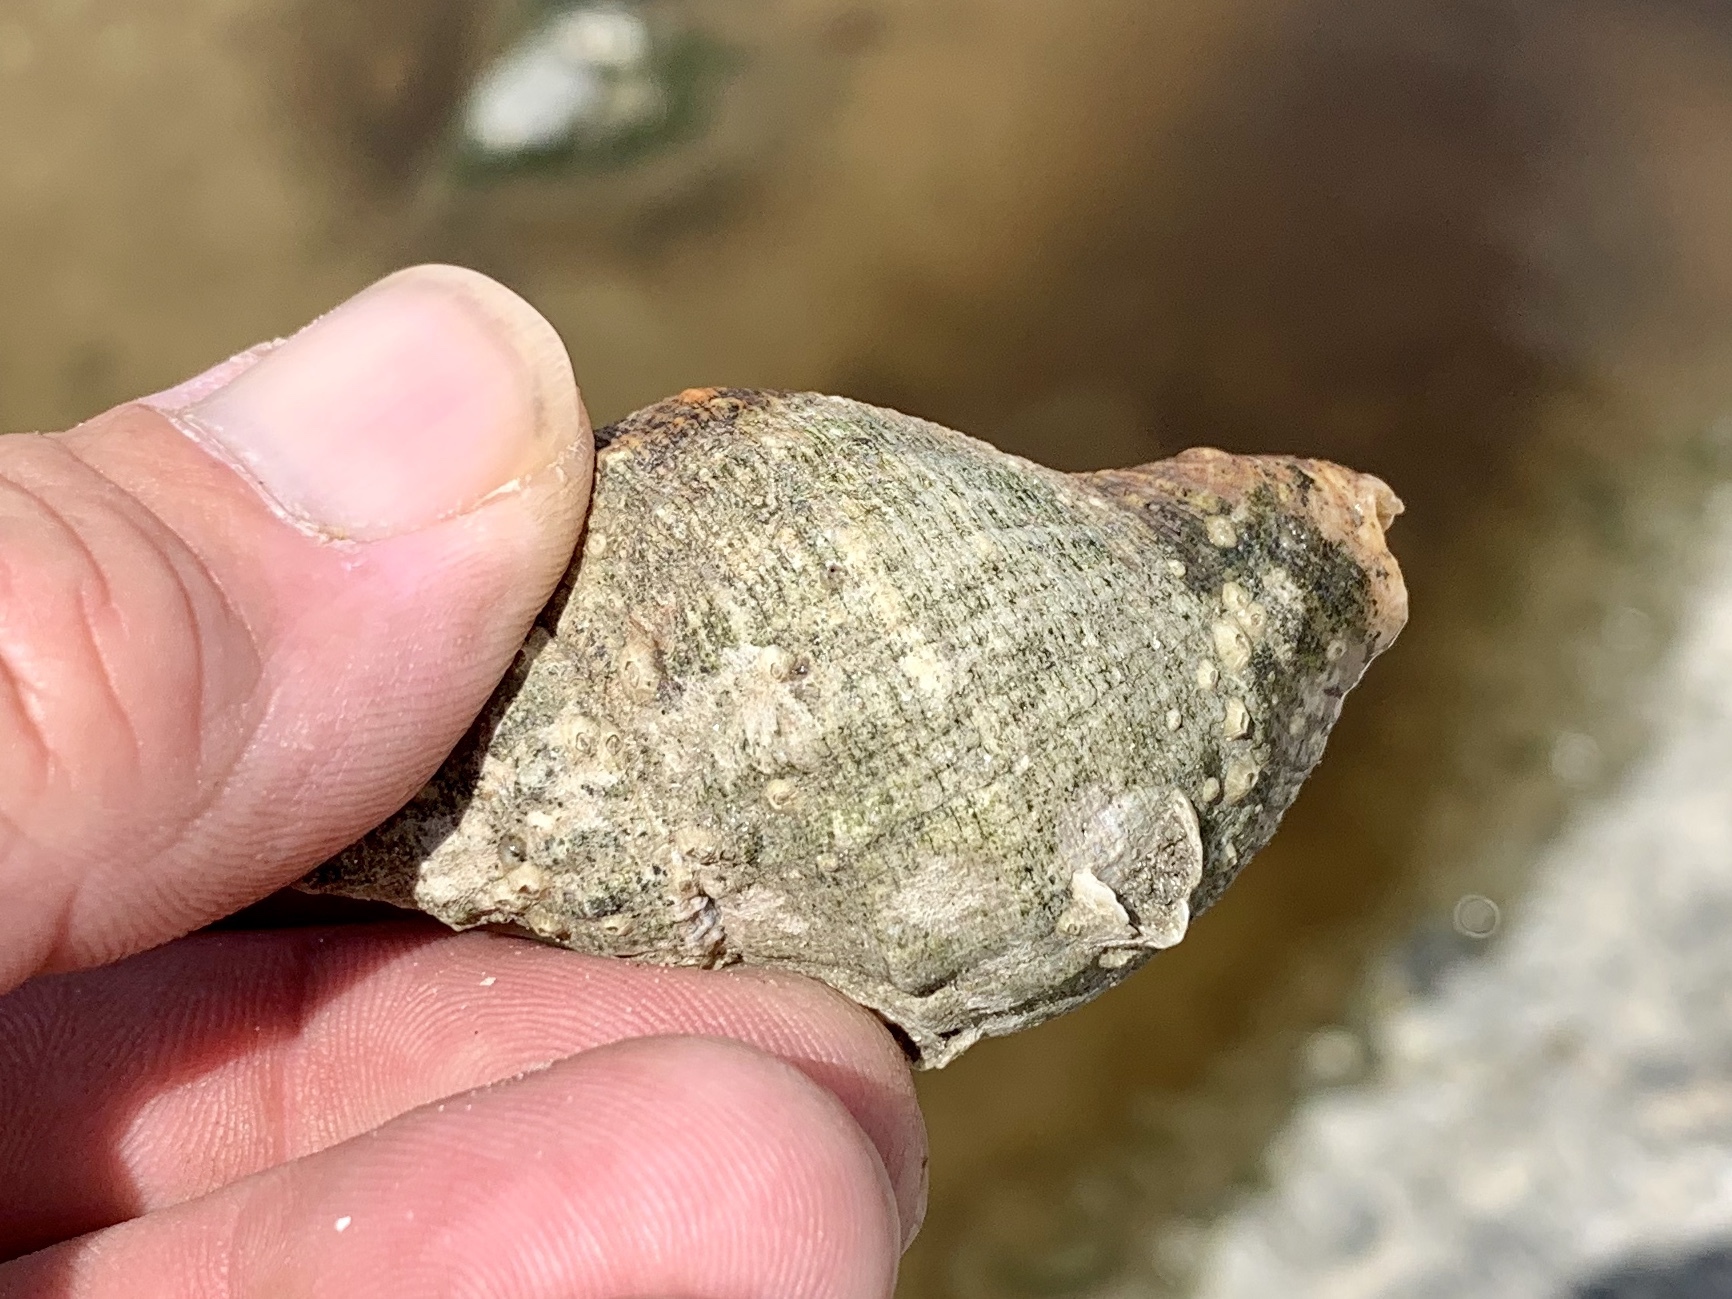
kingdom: Animalia
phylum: Arthropoda
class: Malacostraca
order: Decapoda
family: Diogenidae
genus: Clibanarius
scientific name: Clibanarius vittatus
